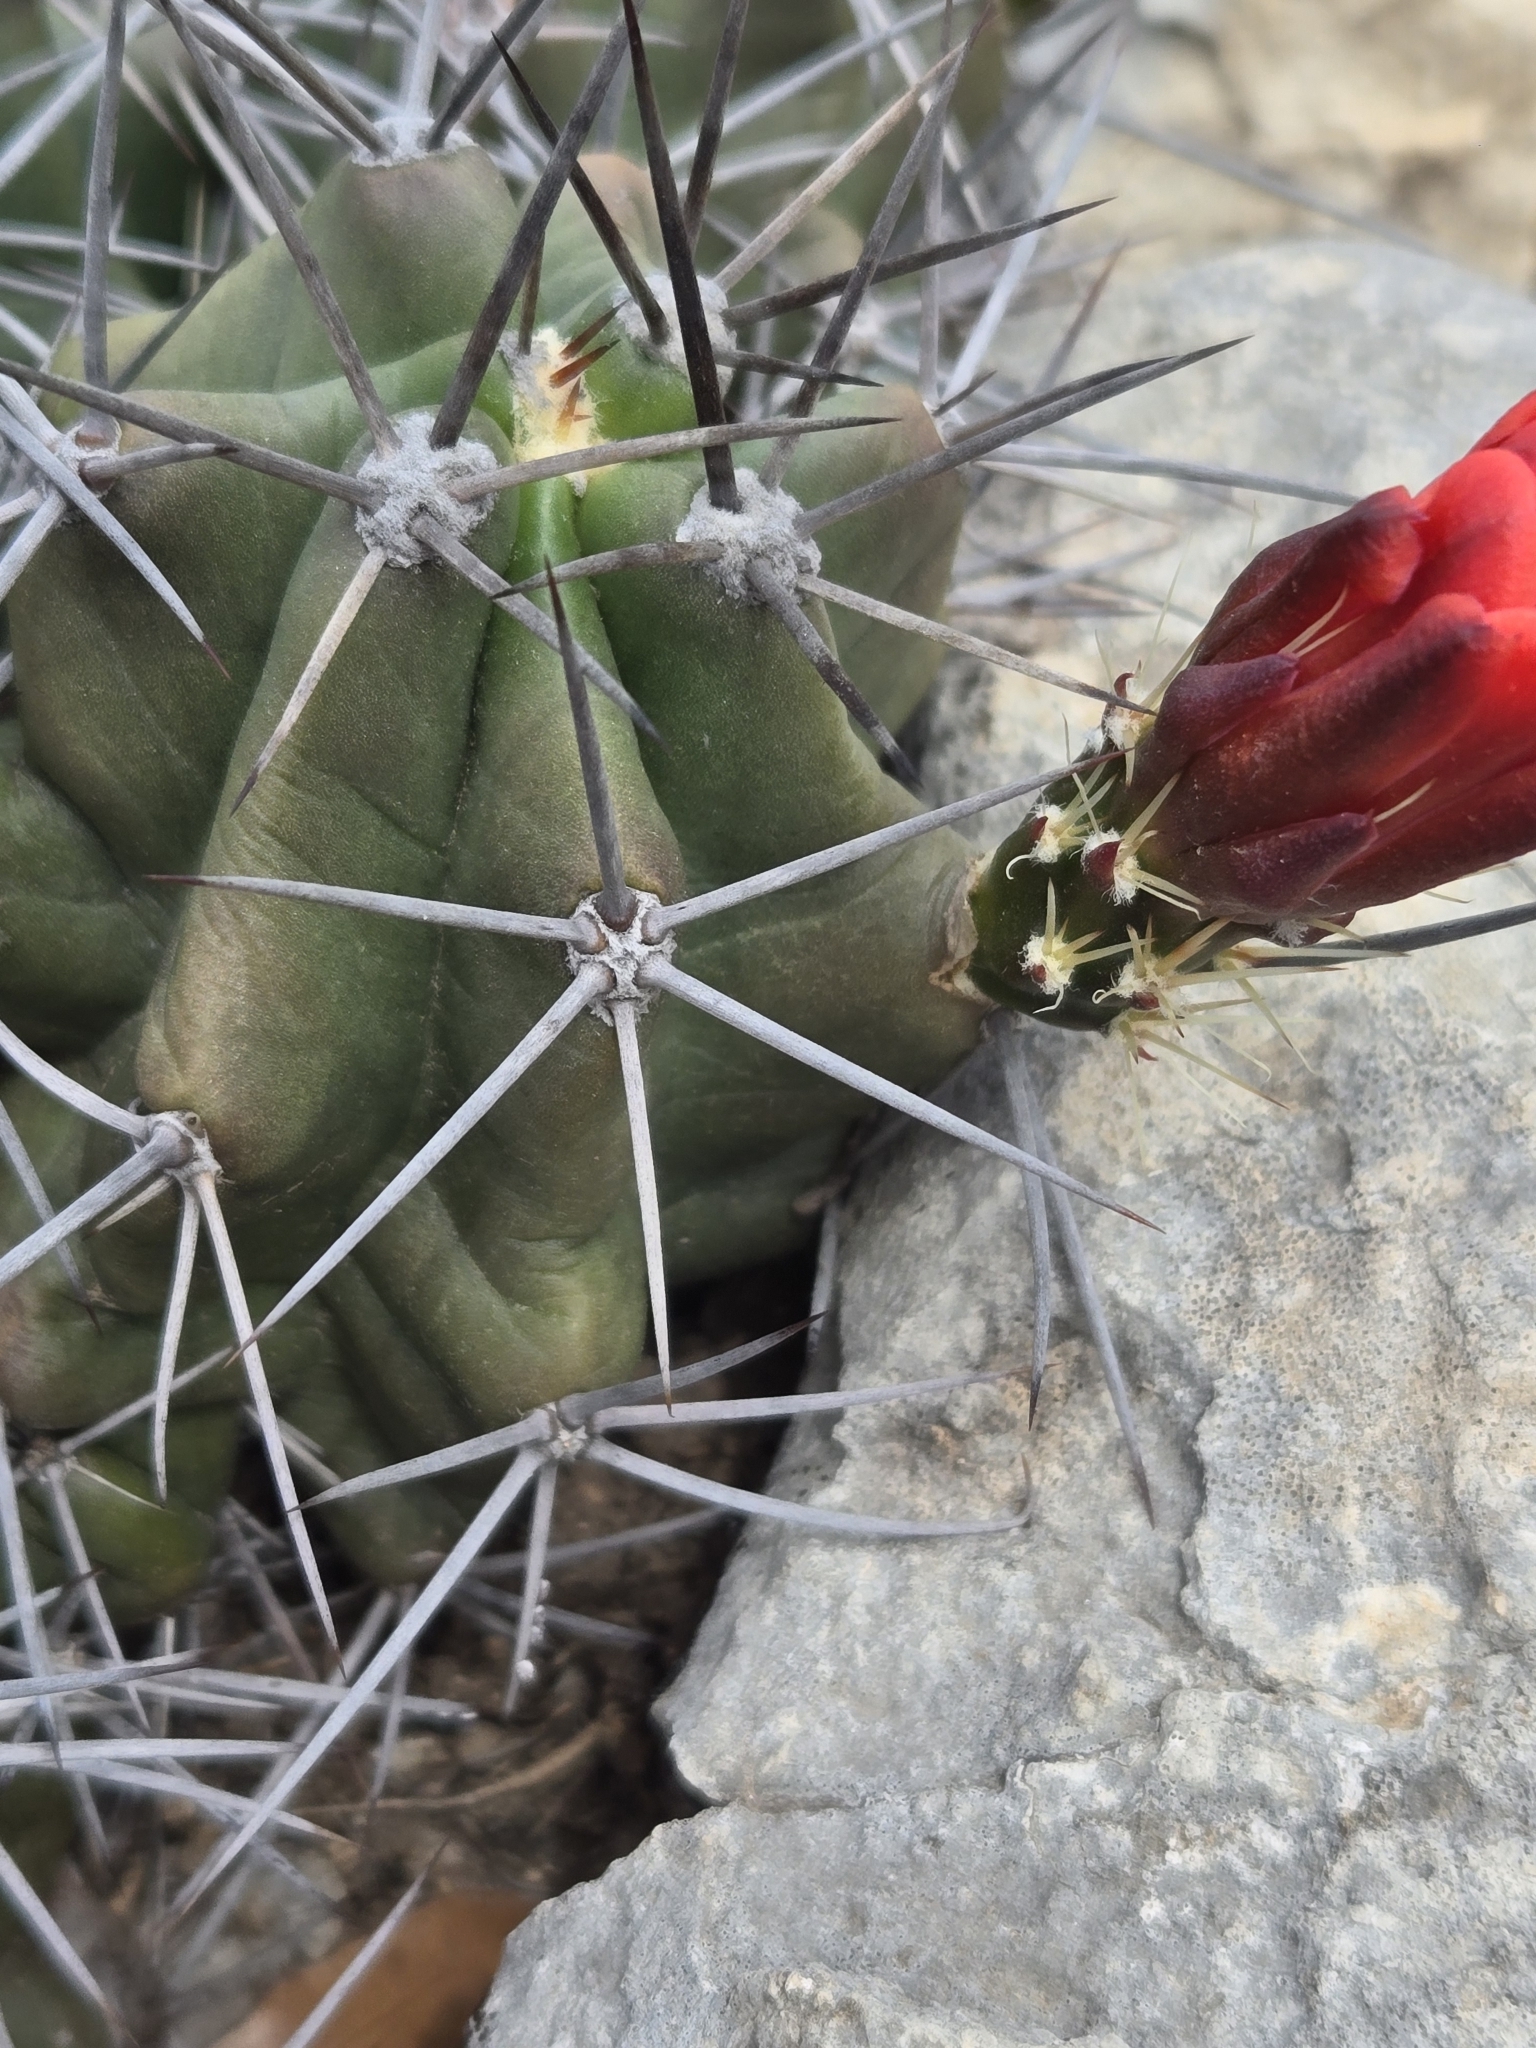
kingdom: Plantae
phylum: Tracheophyta
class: Magnoliopsida
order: Caryophyllales
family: Cactaceae
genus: Echinocereus
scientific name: Echinocereus coccineus
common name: Scarlet hedgehog cactus
